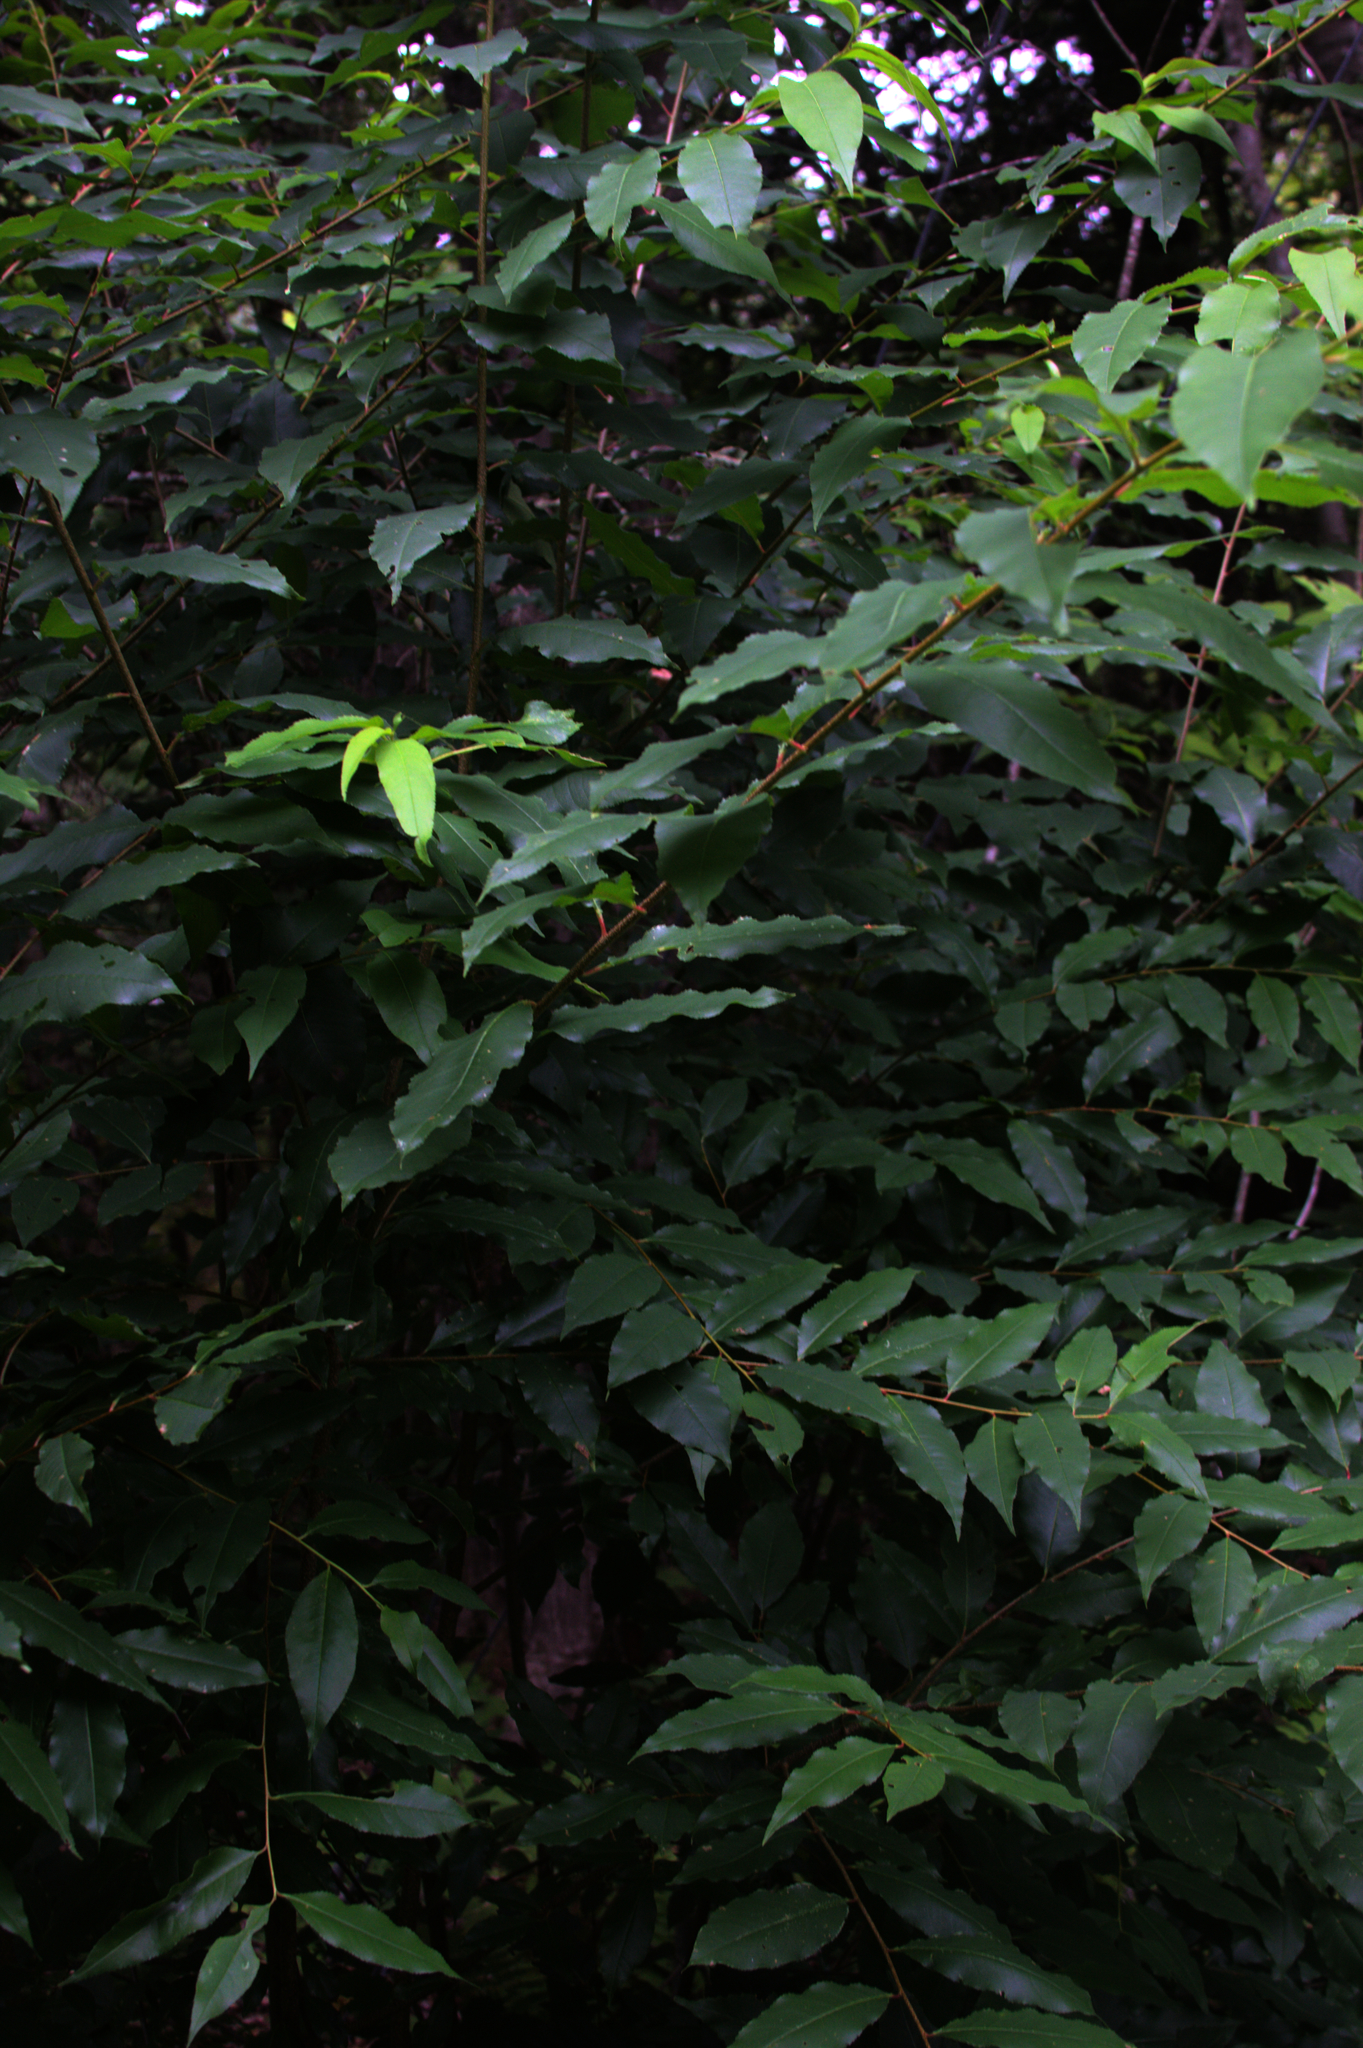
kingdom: Plantae
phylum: Tracheophyta
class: Magnoliopsida
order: Rosales
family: Rosaceae
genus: Prunus
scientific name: Prunus serotina
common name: Black cherry
